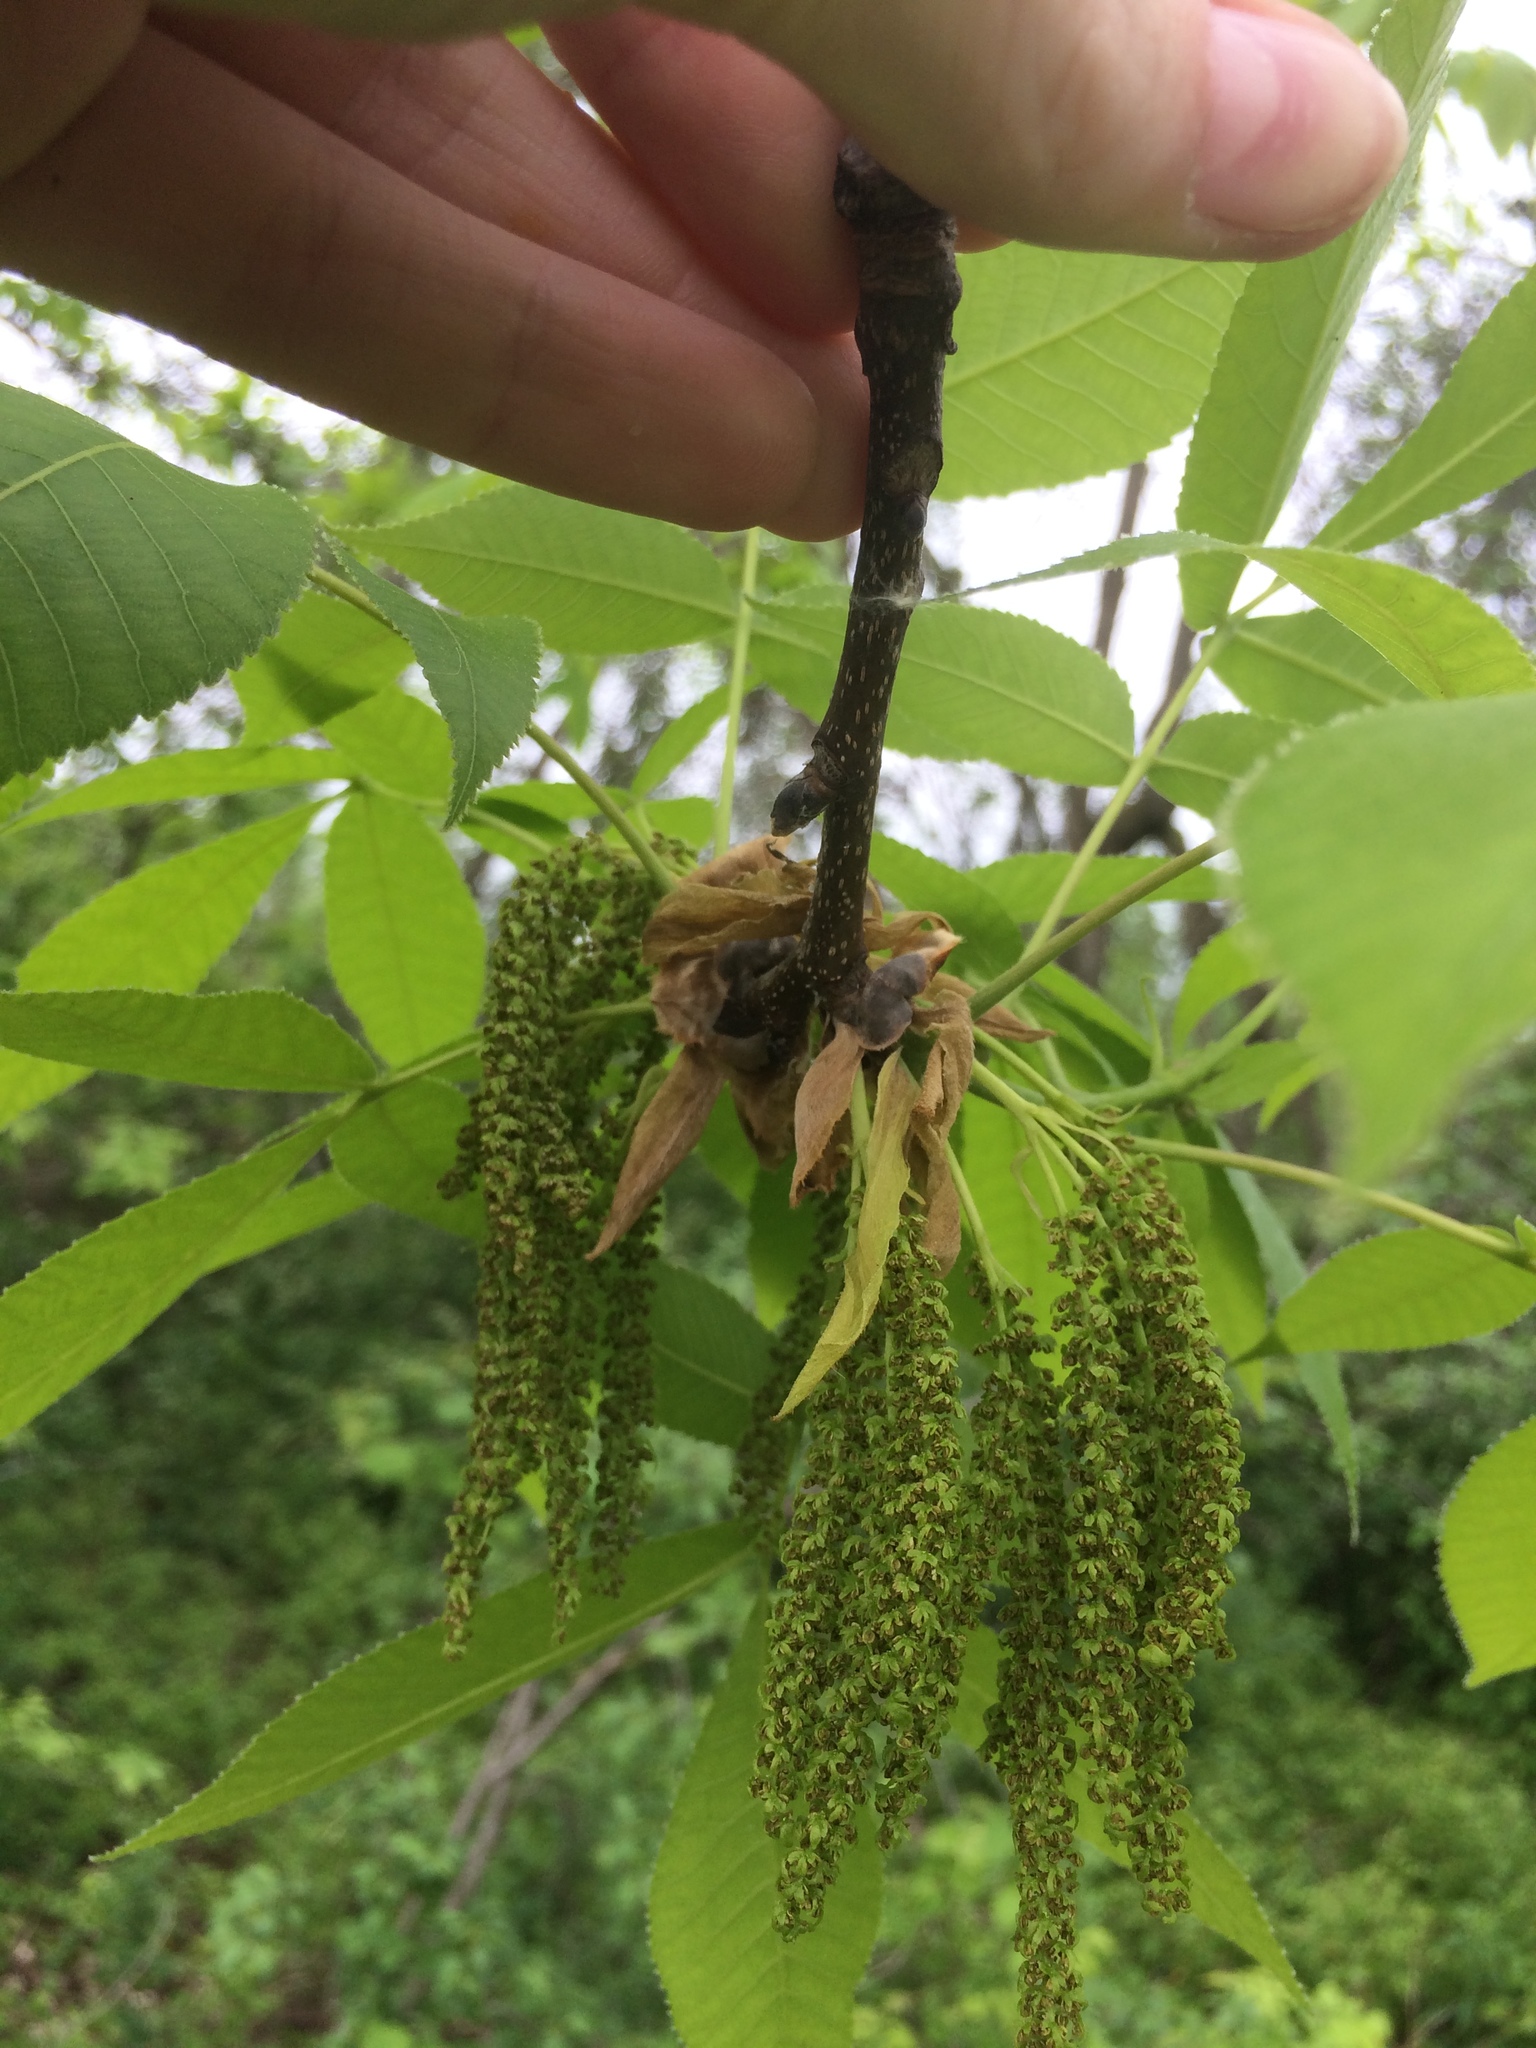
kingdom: Plantae
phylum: Tracheophyta
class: Magnoliopsida
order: Fagales
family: Juglandaceae
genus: Carya
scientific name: Carya ovata
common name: Shagbark hickory
